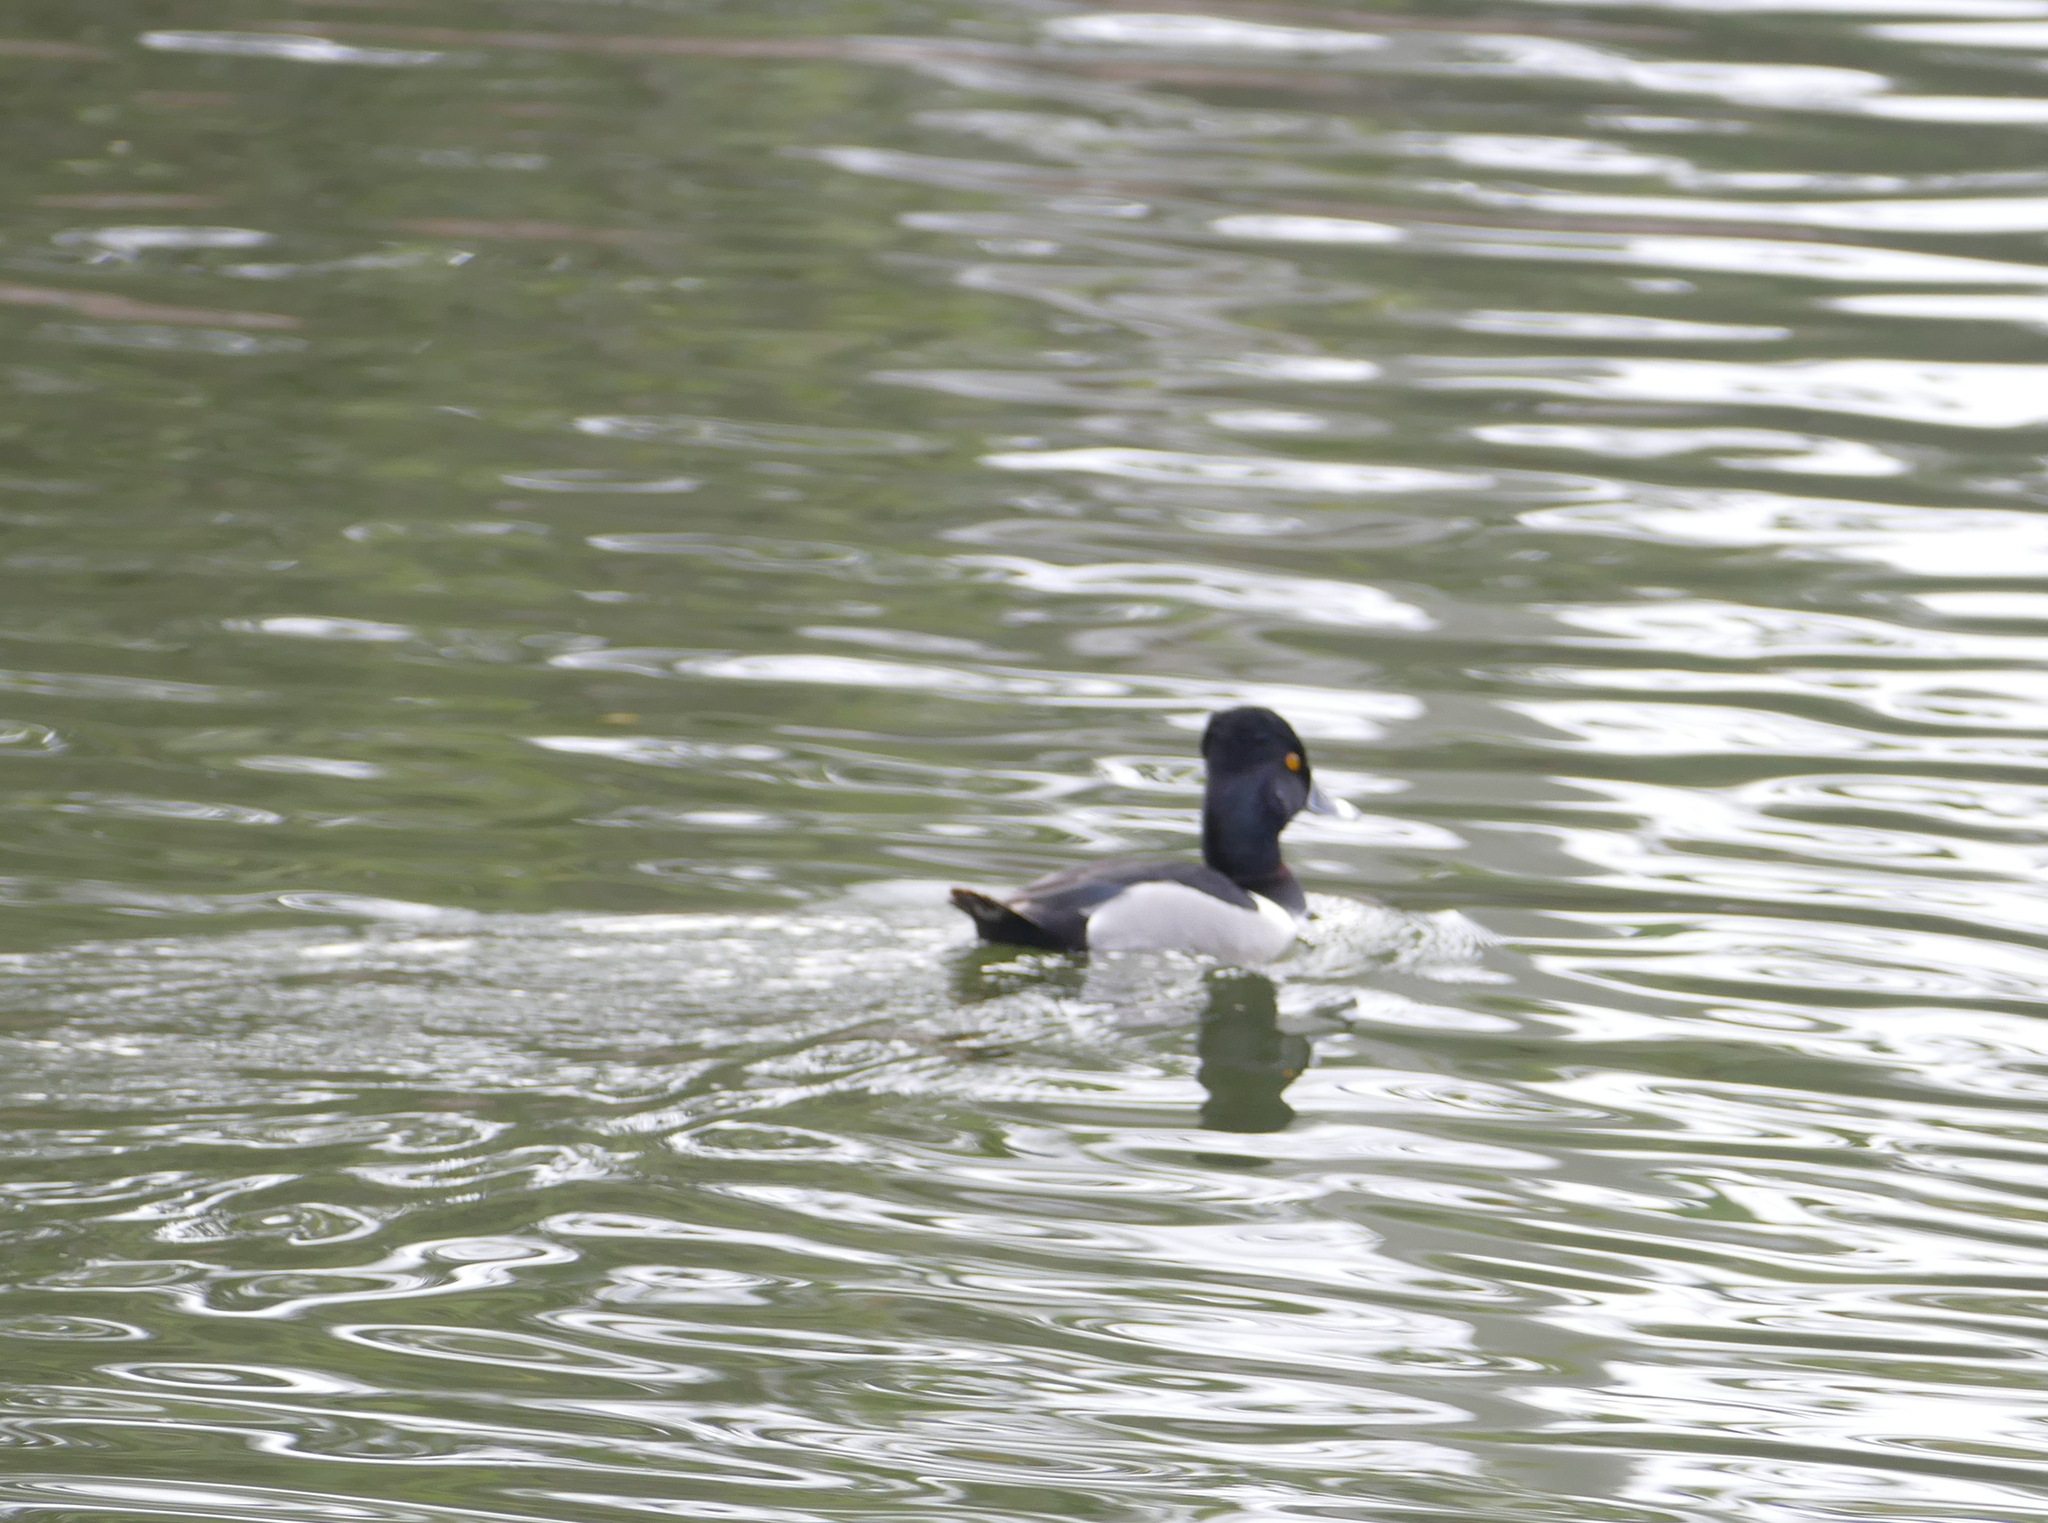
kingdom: Animalia
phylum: Chordata
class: Aves
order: Anseriformes
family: Anatidae
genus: Aythya
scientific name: Aythya collaris
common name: Ring-necked duck
